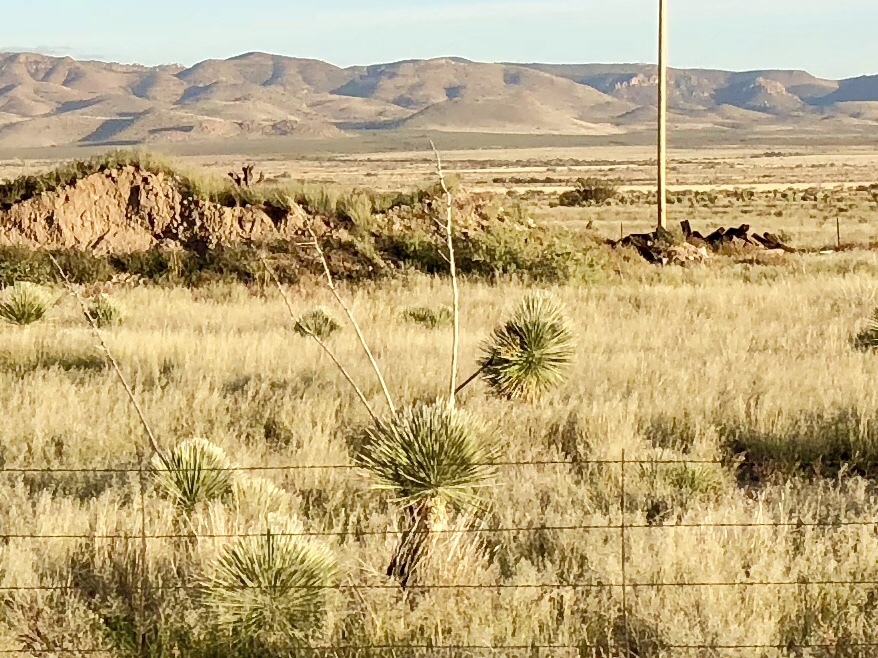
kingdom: Plantae
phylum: Tracheophyta
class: Liliopsida
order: Asparagales
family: Asparagaceae
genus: Yucca
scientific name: Yucca elata
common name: Palmella
